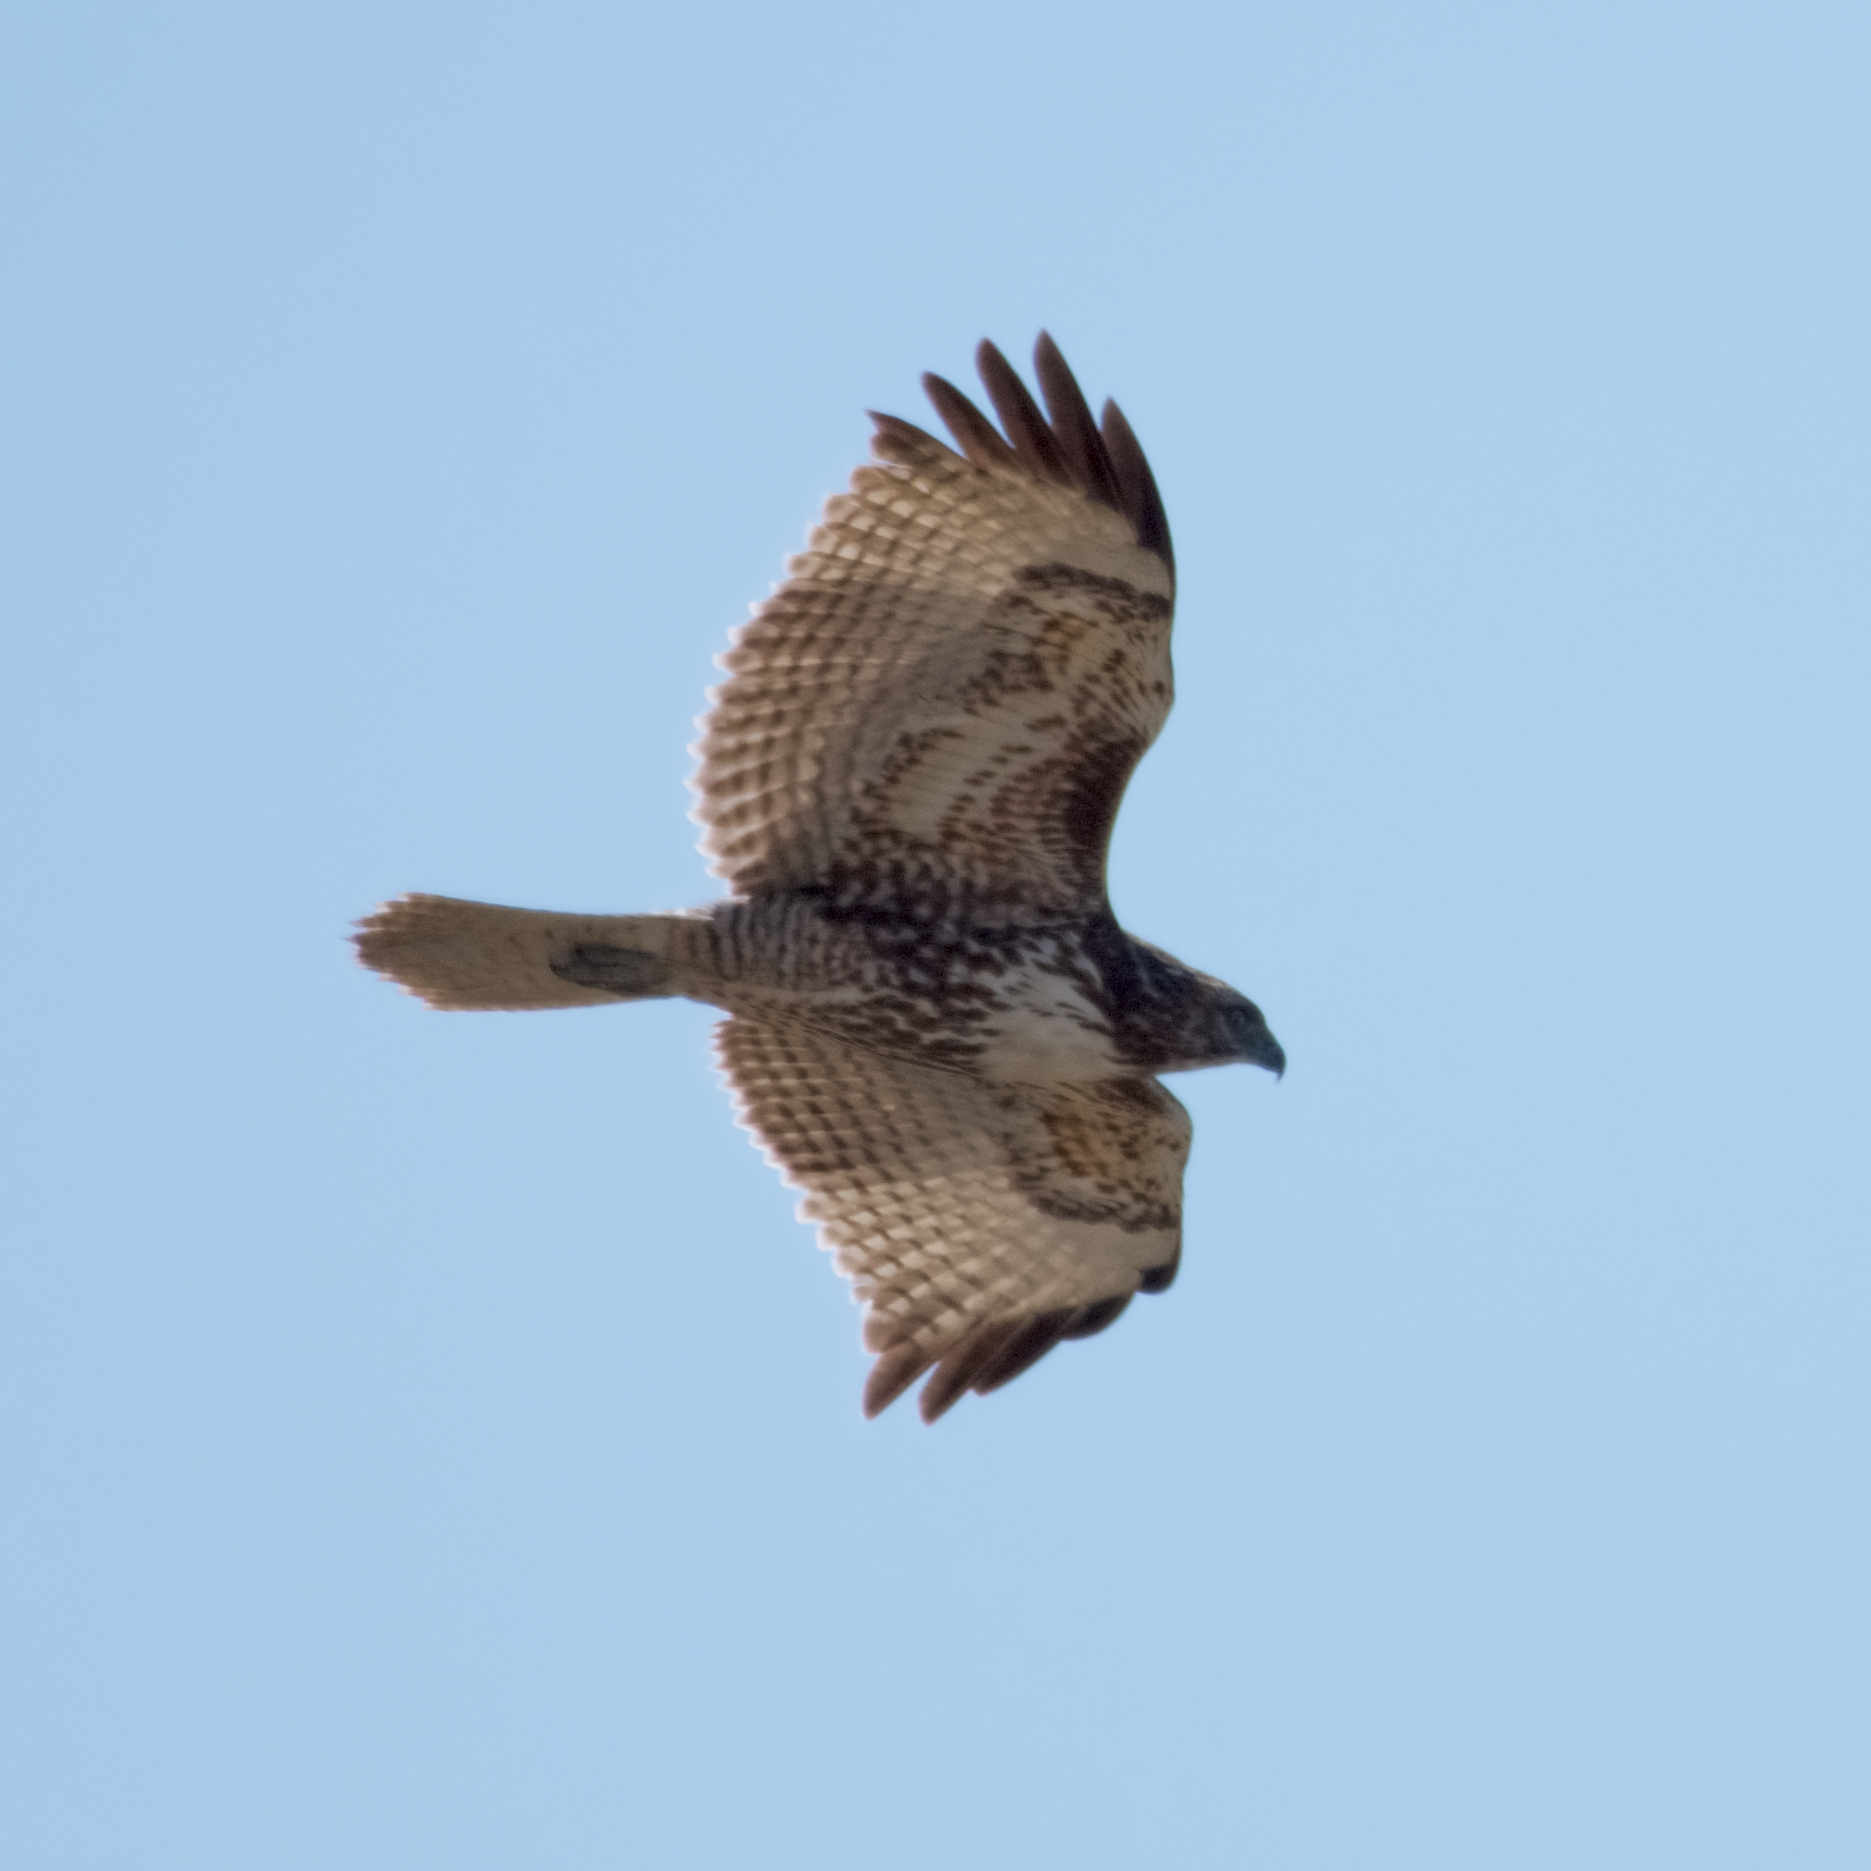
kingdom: Animalia
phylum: Chordata
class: Aves
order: Accipitriformes
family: Accipitridae
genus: Buteo
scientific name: Buteo jamaicensis
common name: Red-tailed hawk
